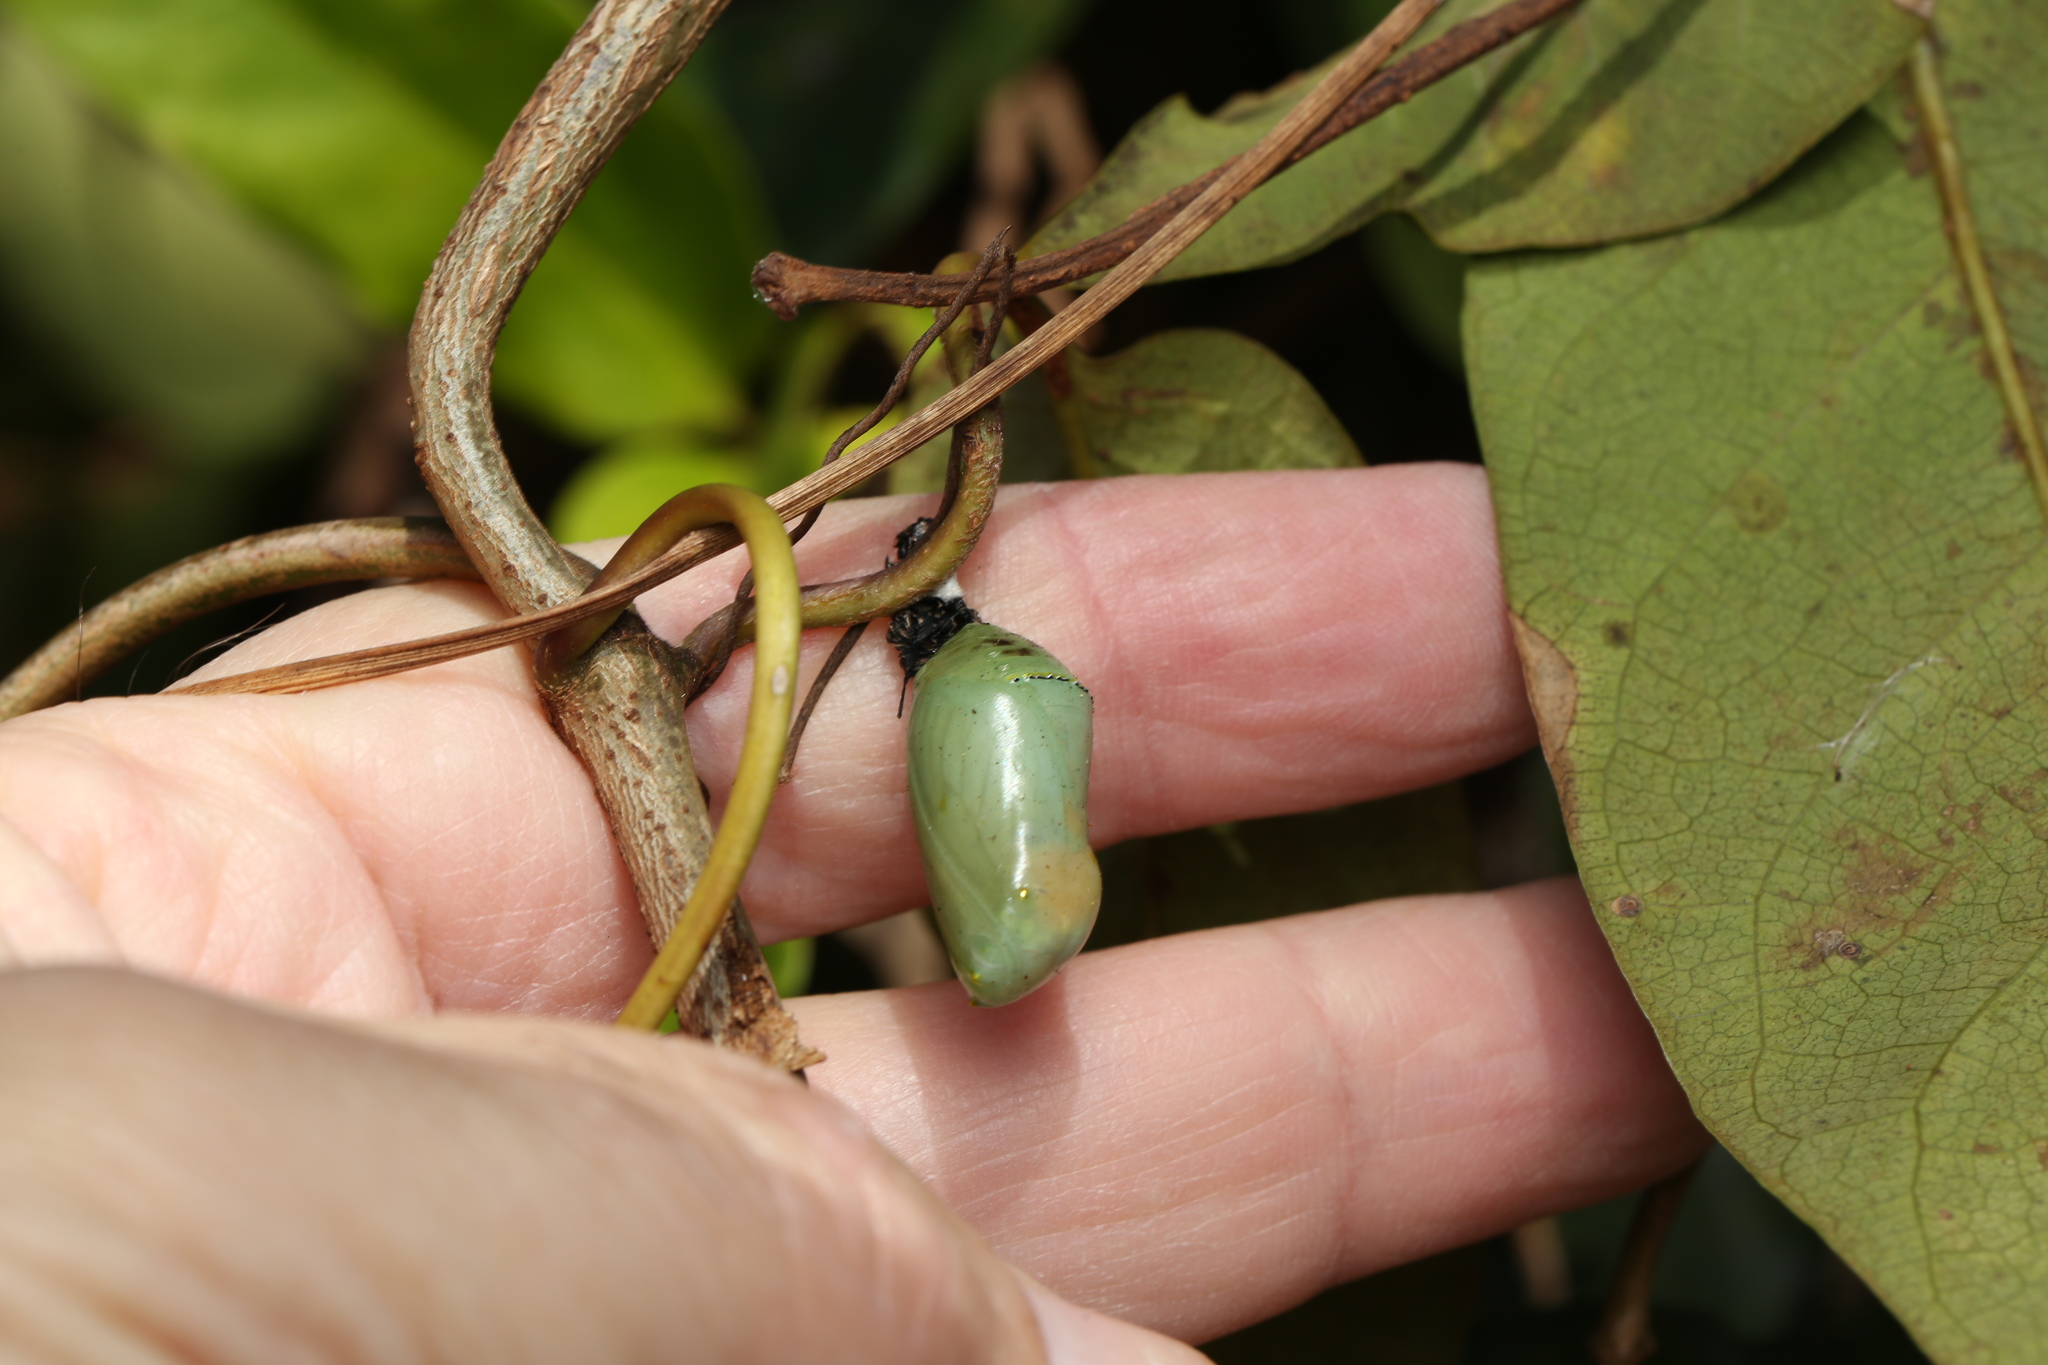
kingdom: Animalia
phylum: Arthropoda
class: Insecta
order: Lepidoptera
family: Nymphalidae
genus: Danaus
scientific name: Danaus chrysippus
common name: Plain tiger
